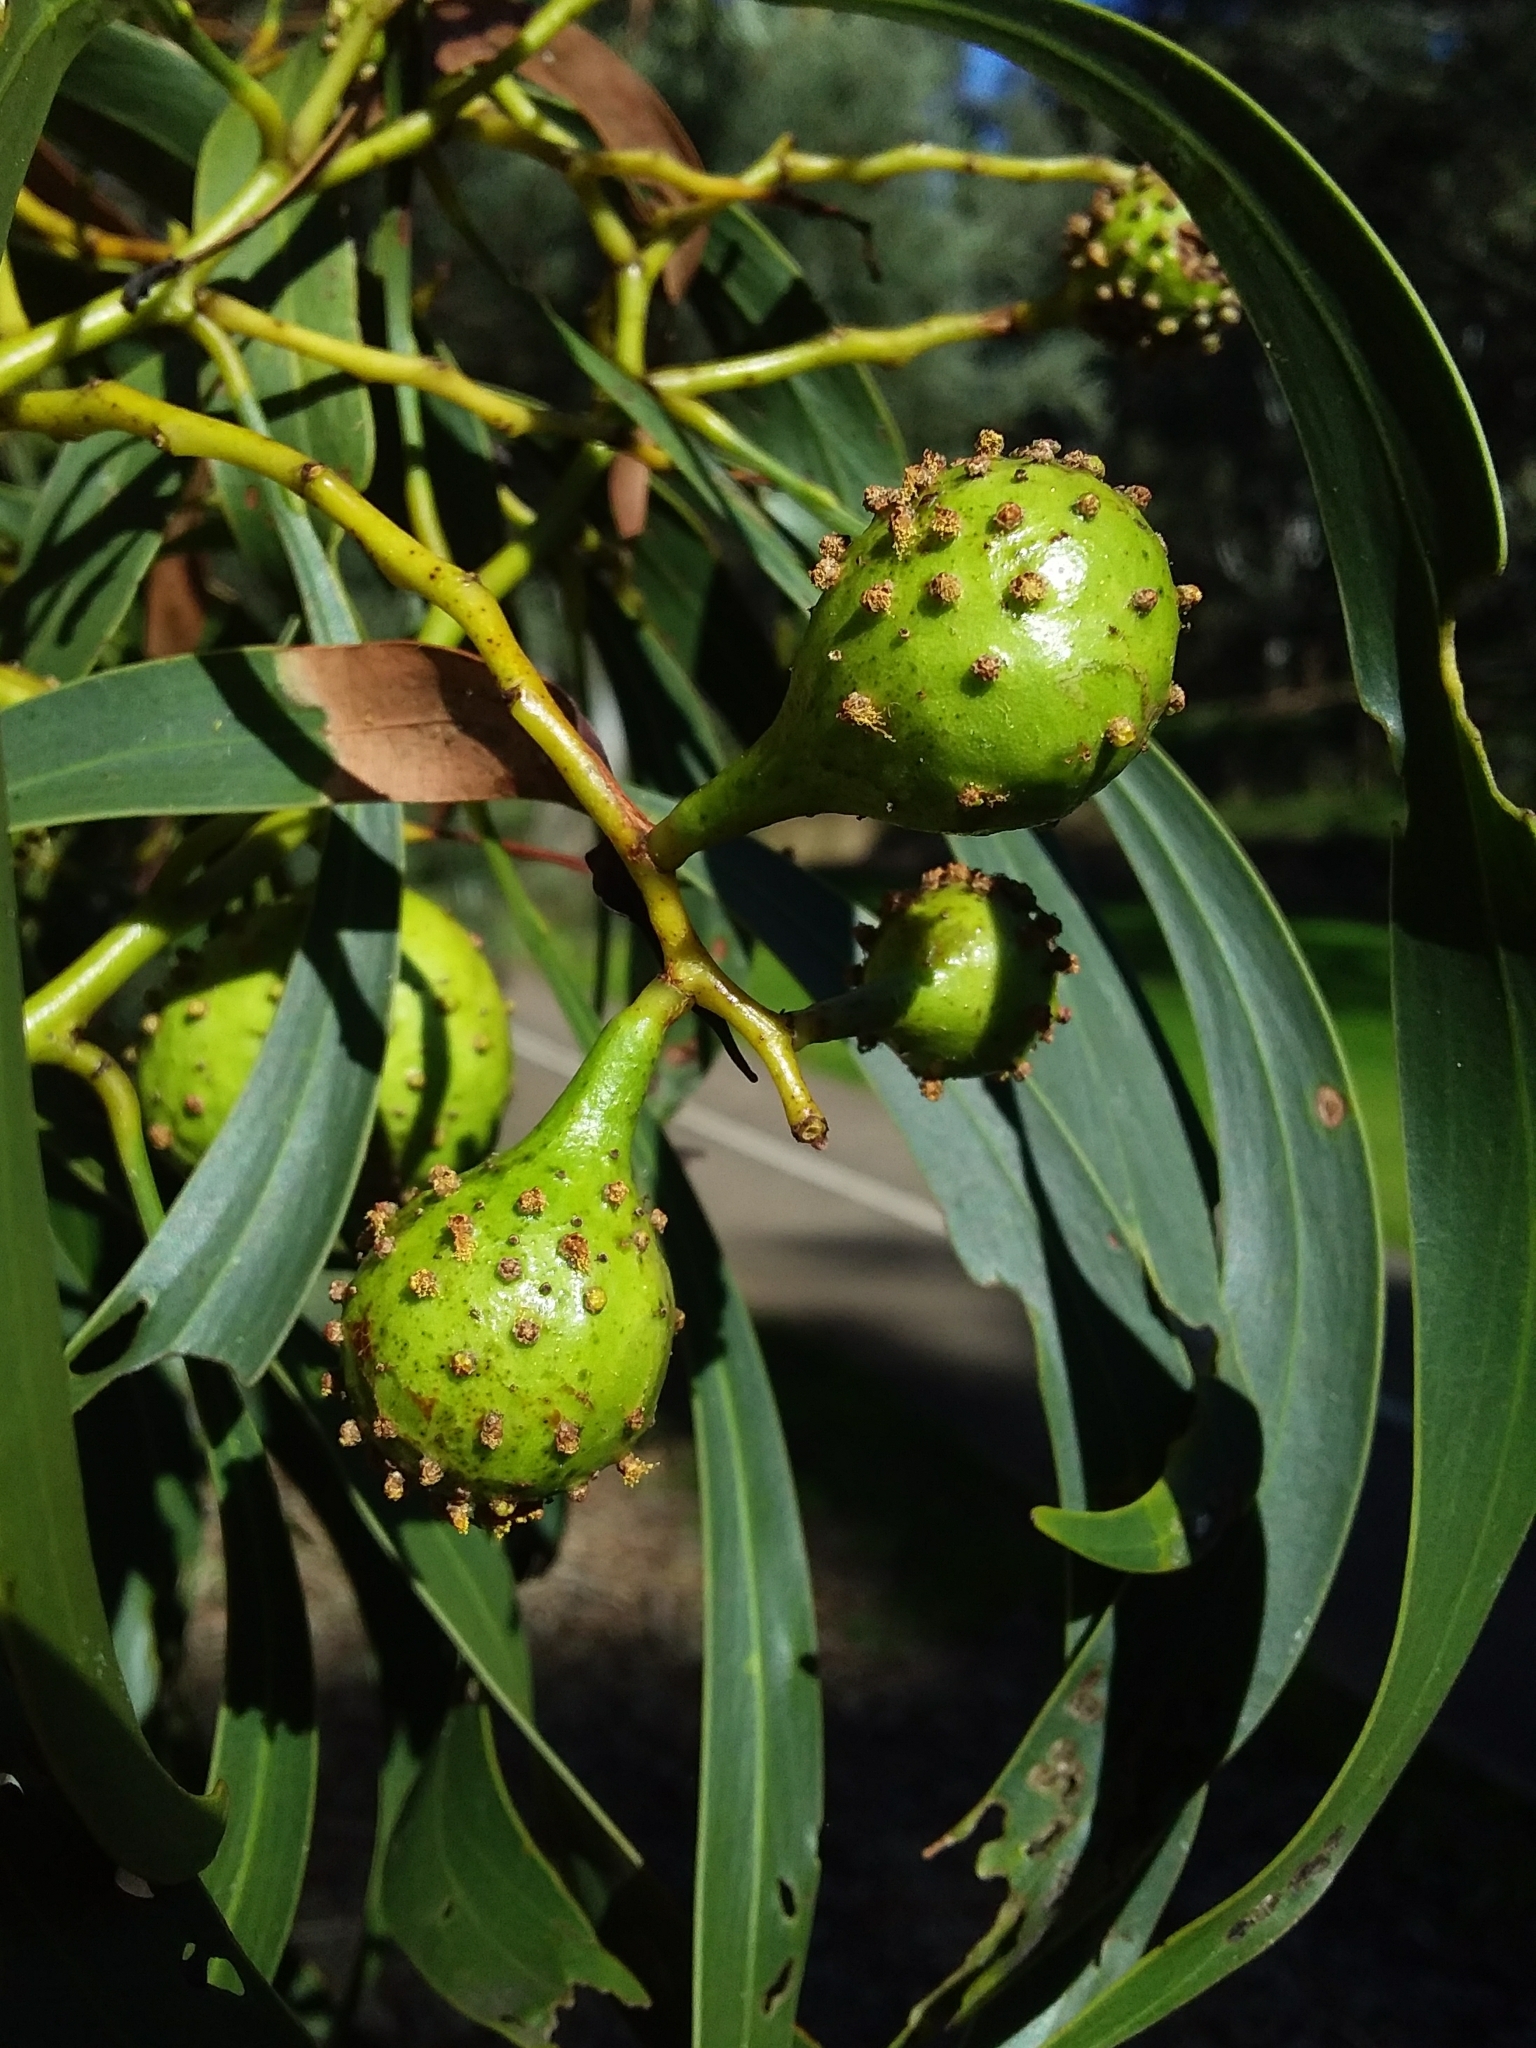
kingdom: Animalia
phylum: Arthropoda
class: Insecta
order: Hymenoptera
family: Pteromalidae
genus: Trichilogaster
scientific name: Trichilogaster signiventris
